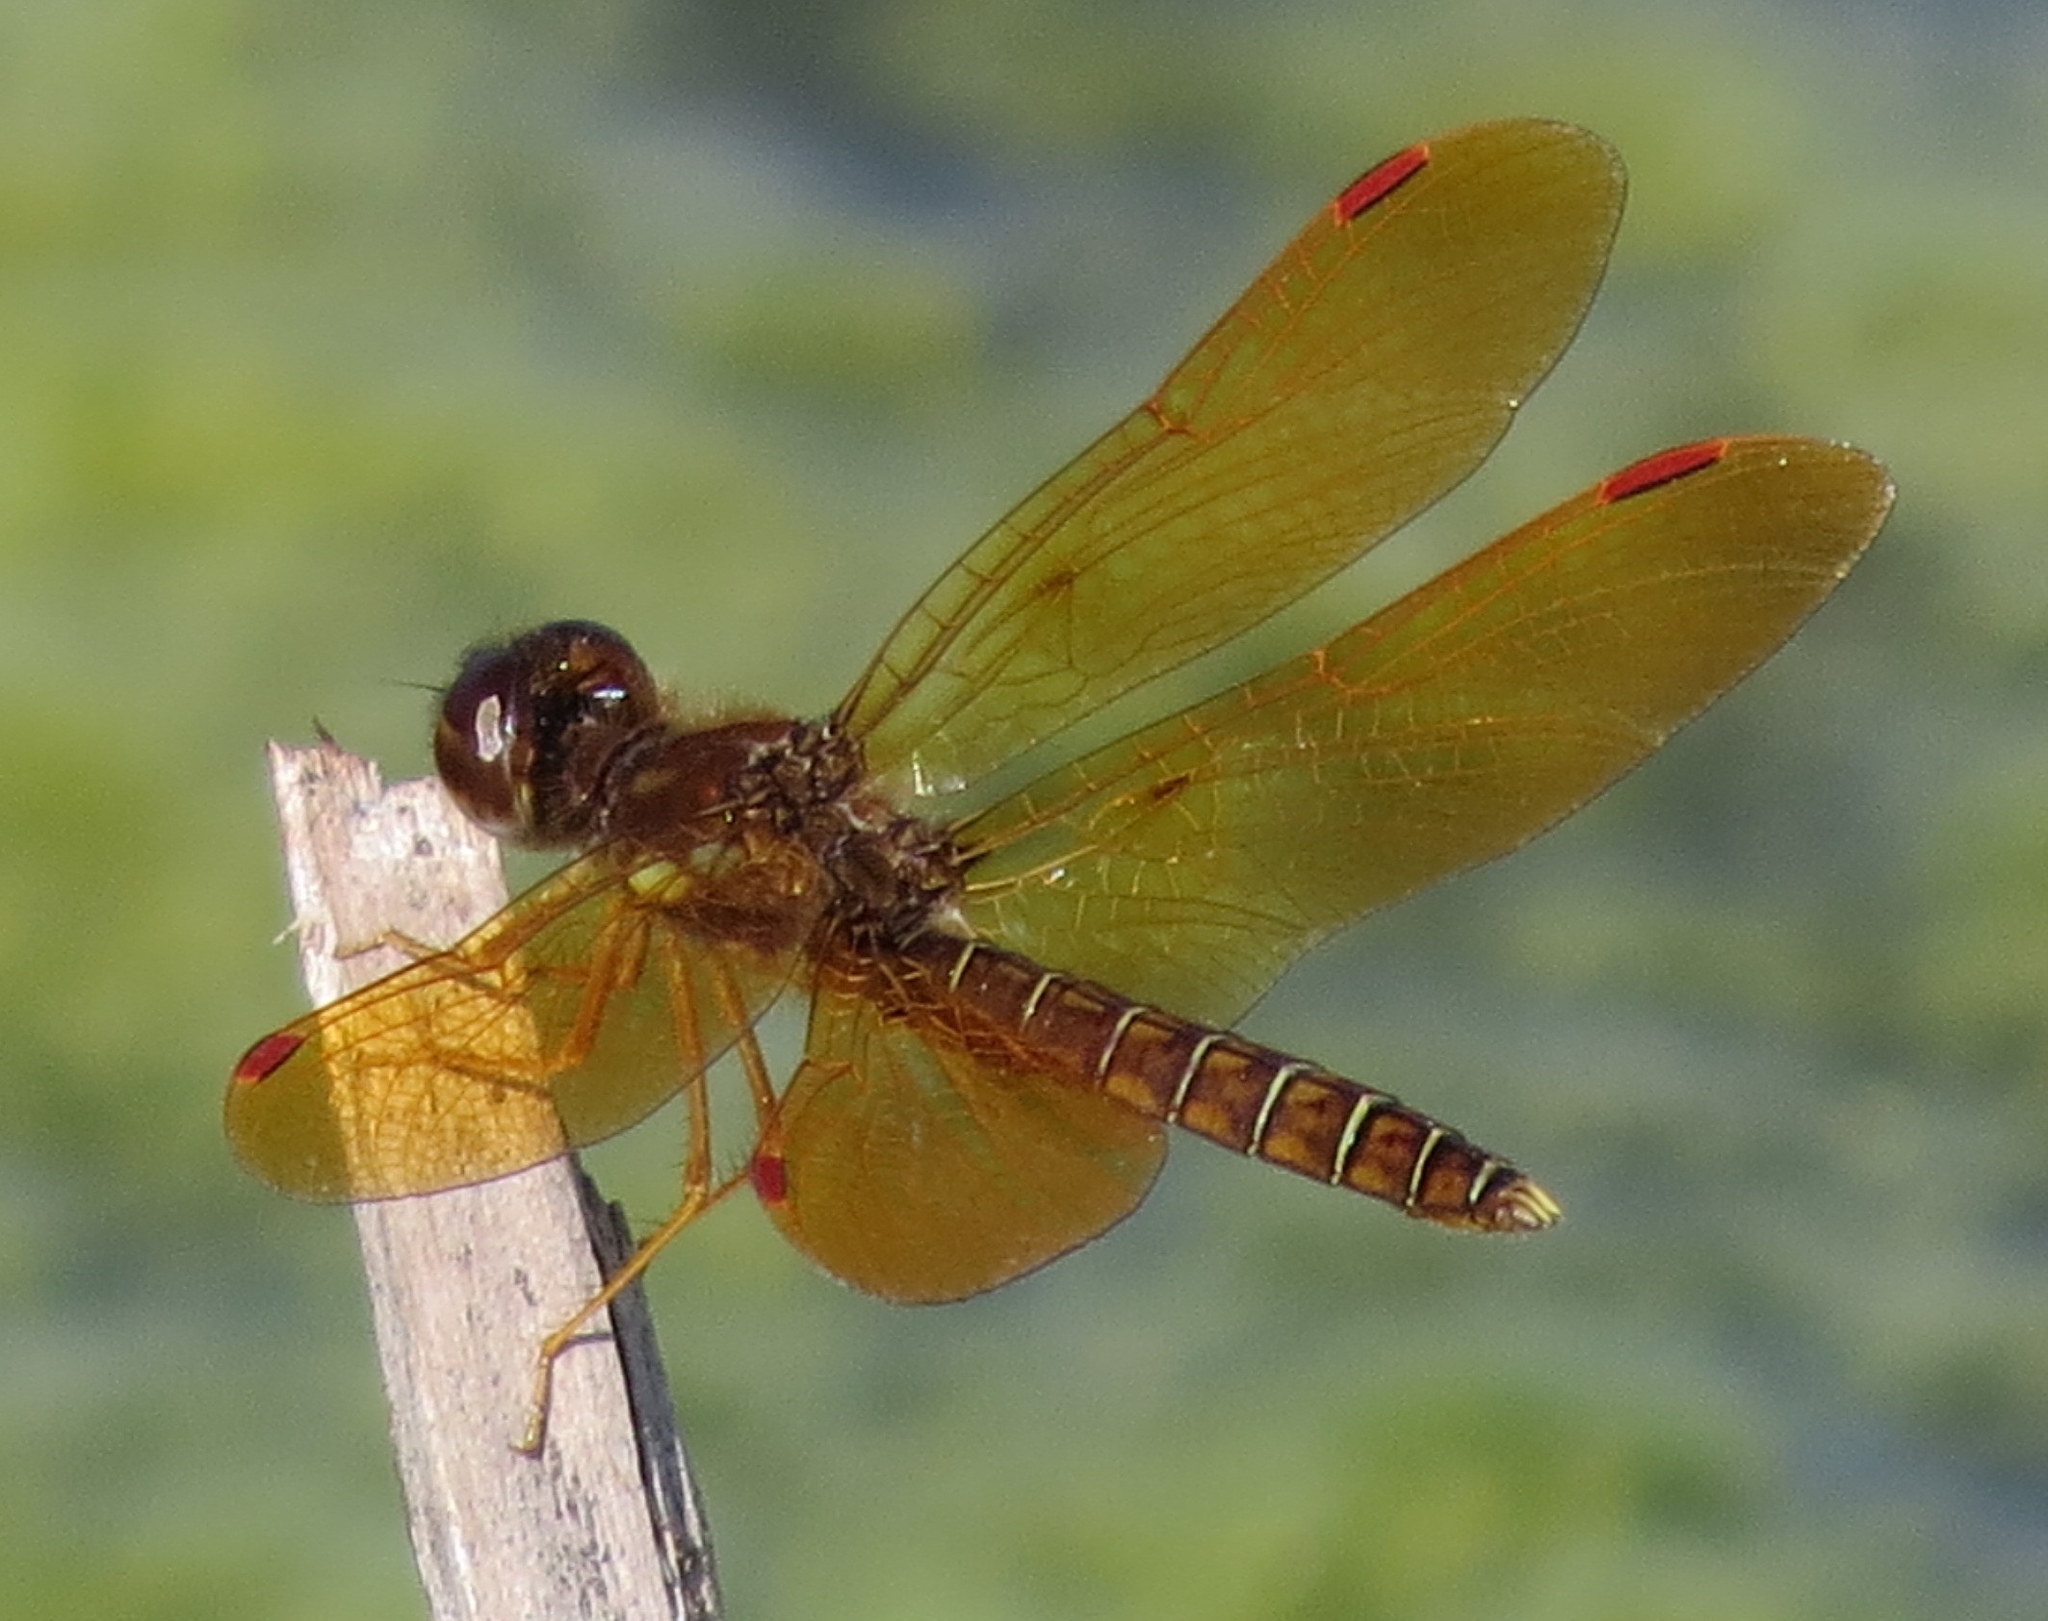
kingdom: Animalia
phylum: Arthropoda
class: Insecta
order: Odonata
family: Libellulidae
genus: Perithemis
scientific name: Perithemis tenera
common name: Eastern amberwing
